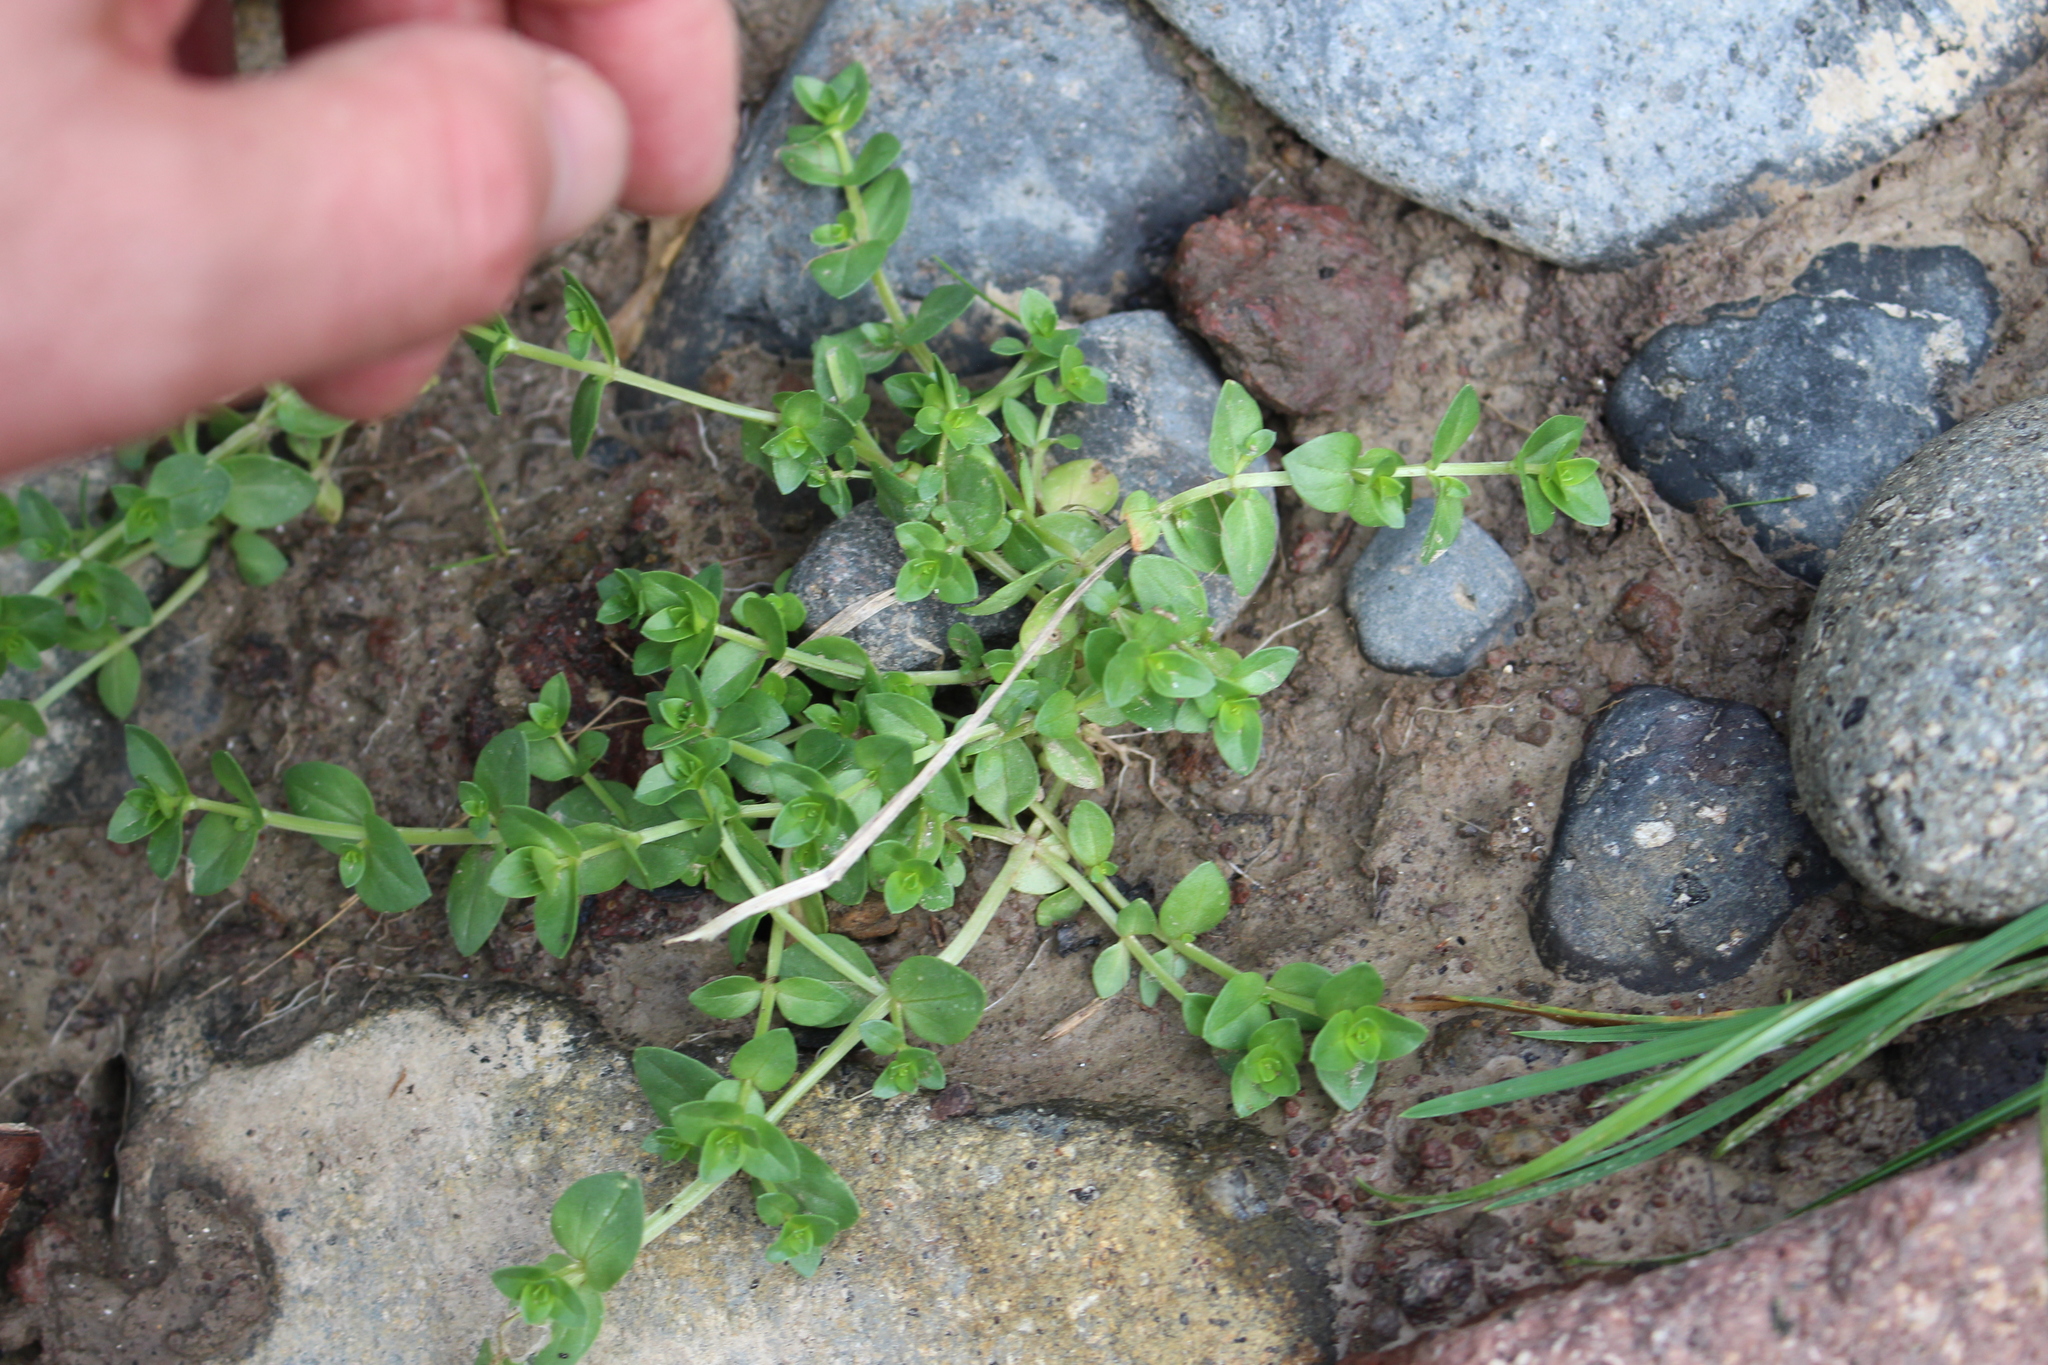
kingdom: Plantae
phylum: Tracheophyta
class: Magnoliopsida
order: Ericales
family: Primulaceae
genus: Lysimachia
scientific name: Lysimachia arvensis
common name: Scarlet pimpernel
